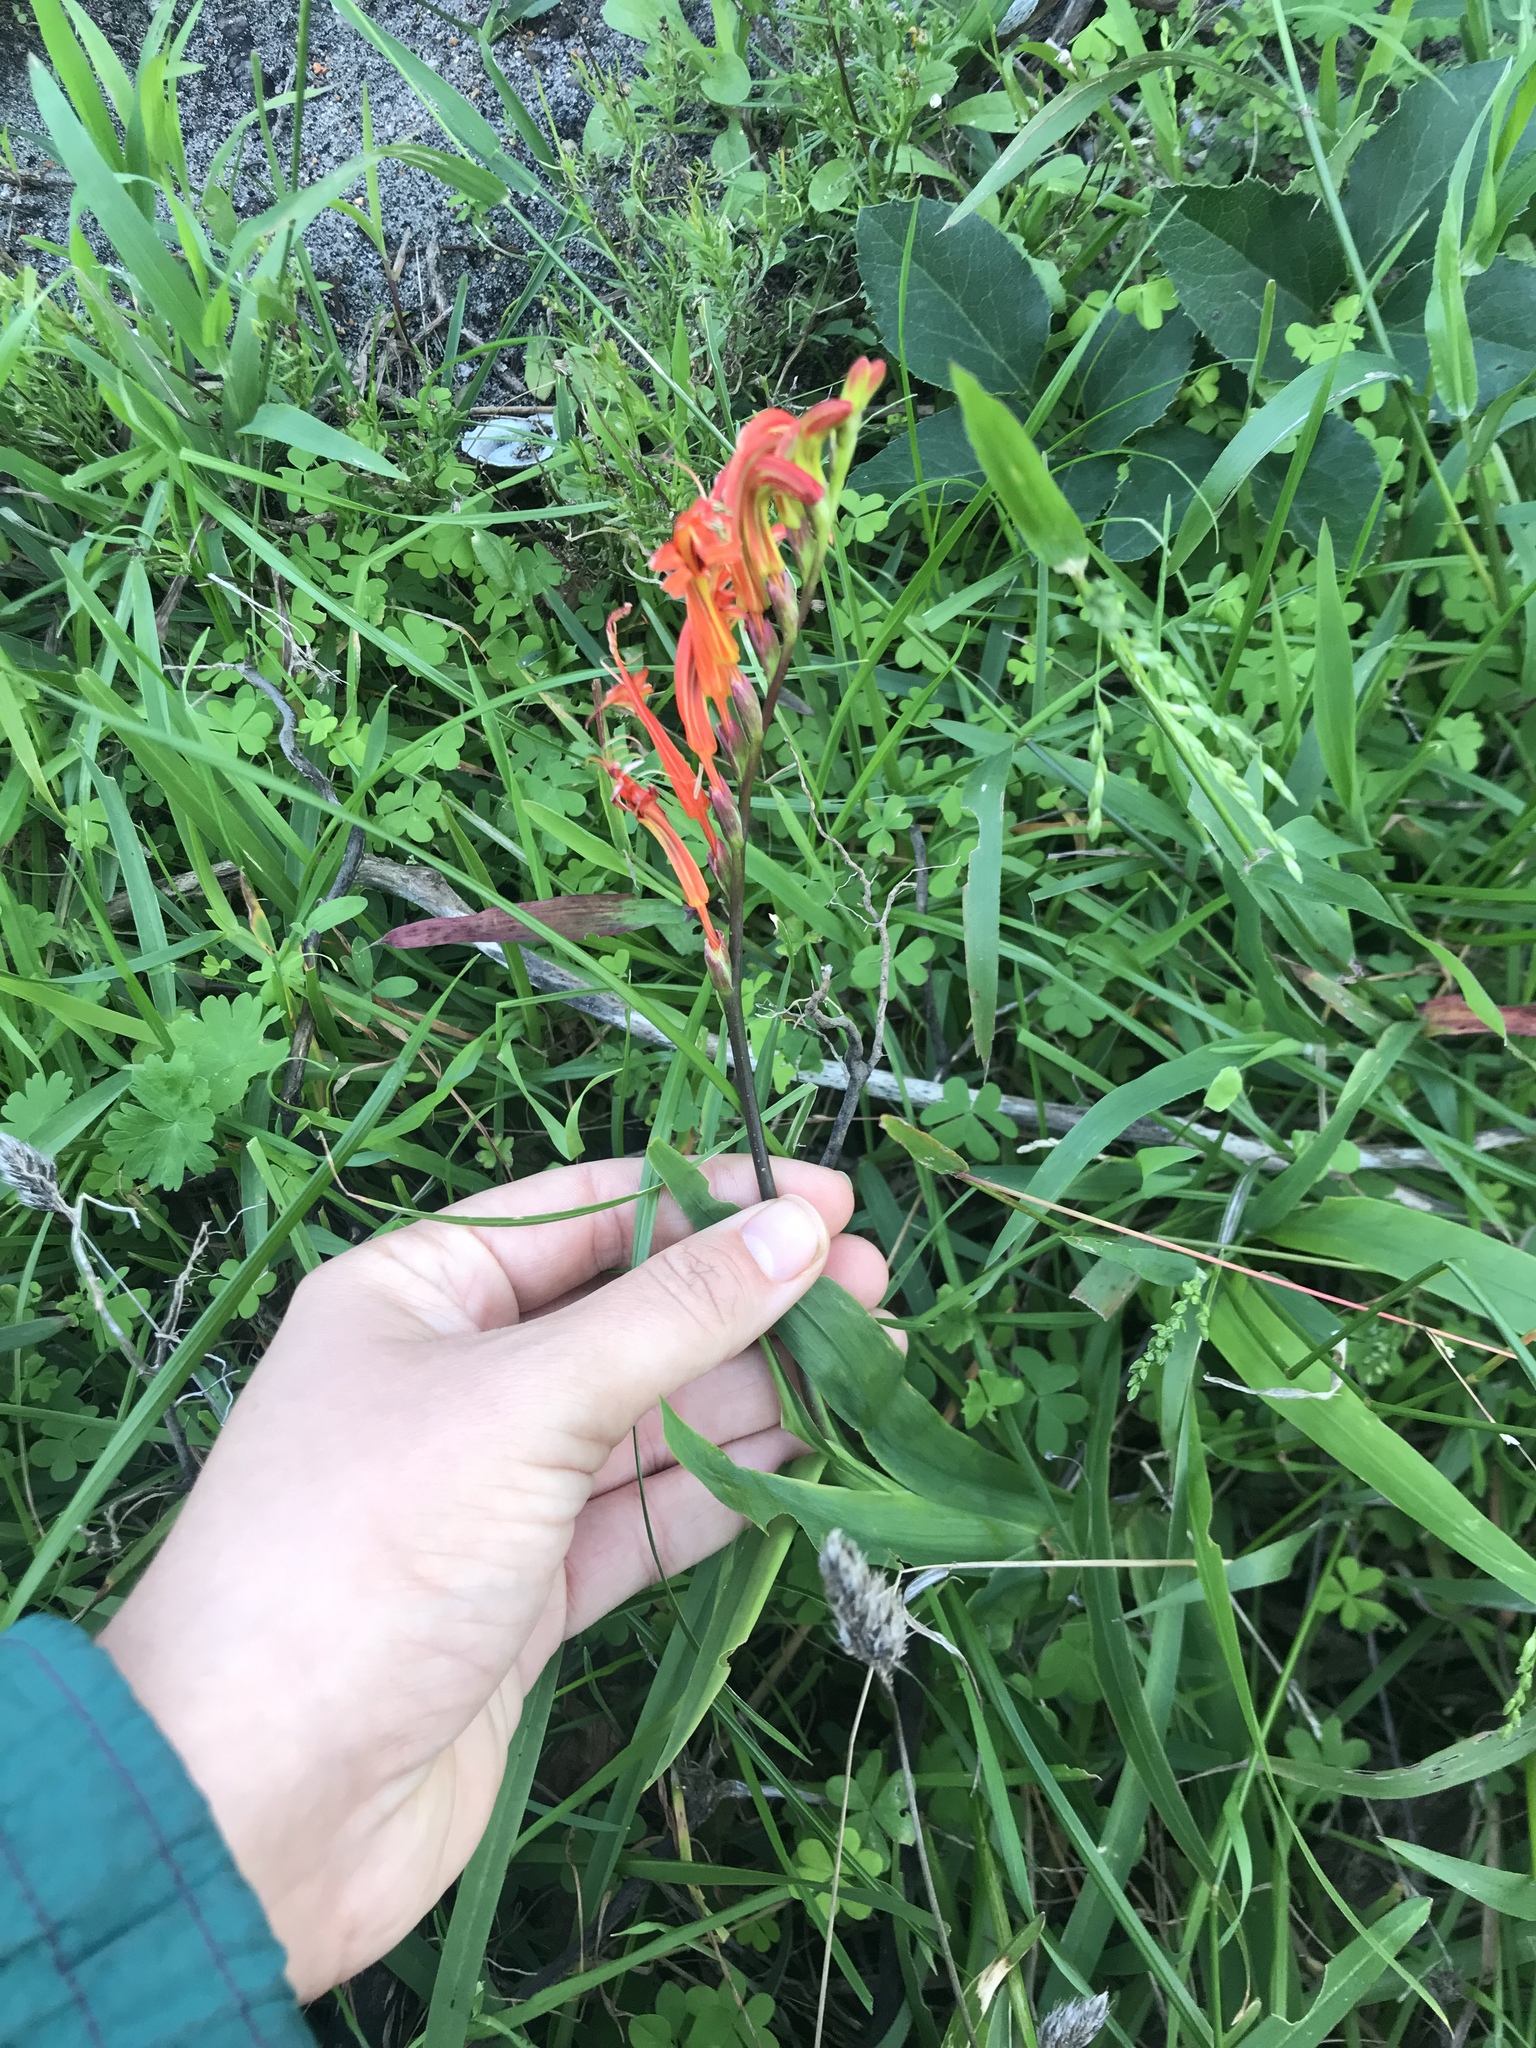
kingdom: Plantae
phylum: Tracheophyta
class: Liliopsida
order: Asparagales
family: Iridaceae
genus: Chasmanthe
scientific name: Chasmanthe aethiopica
